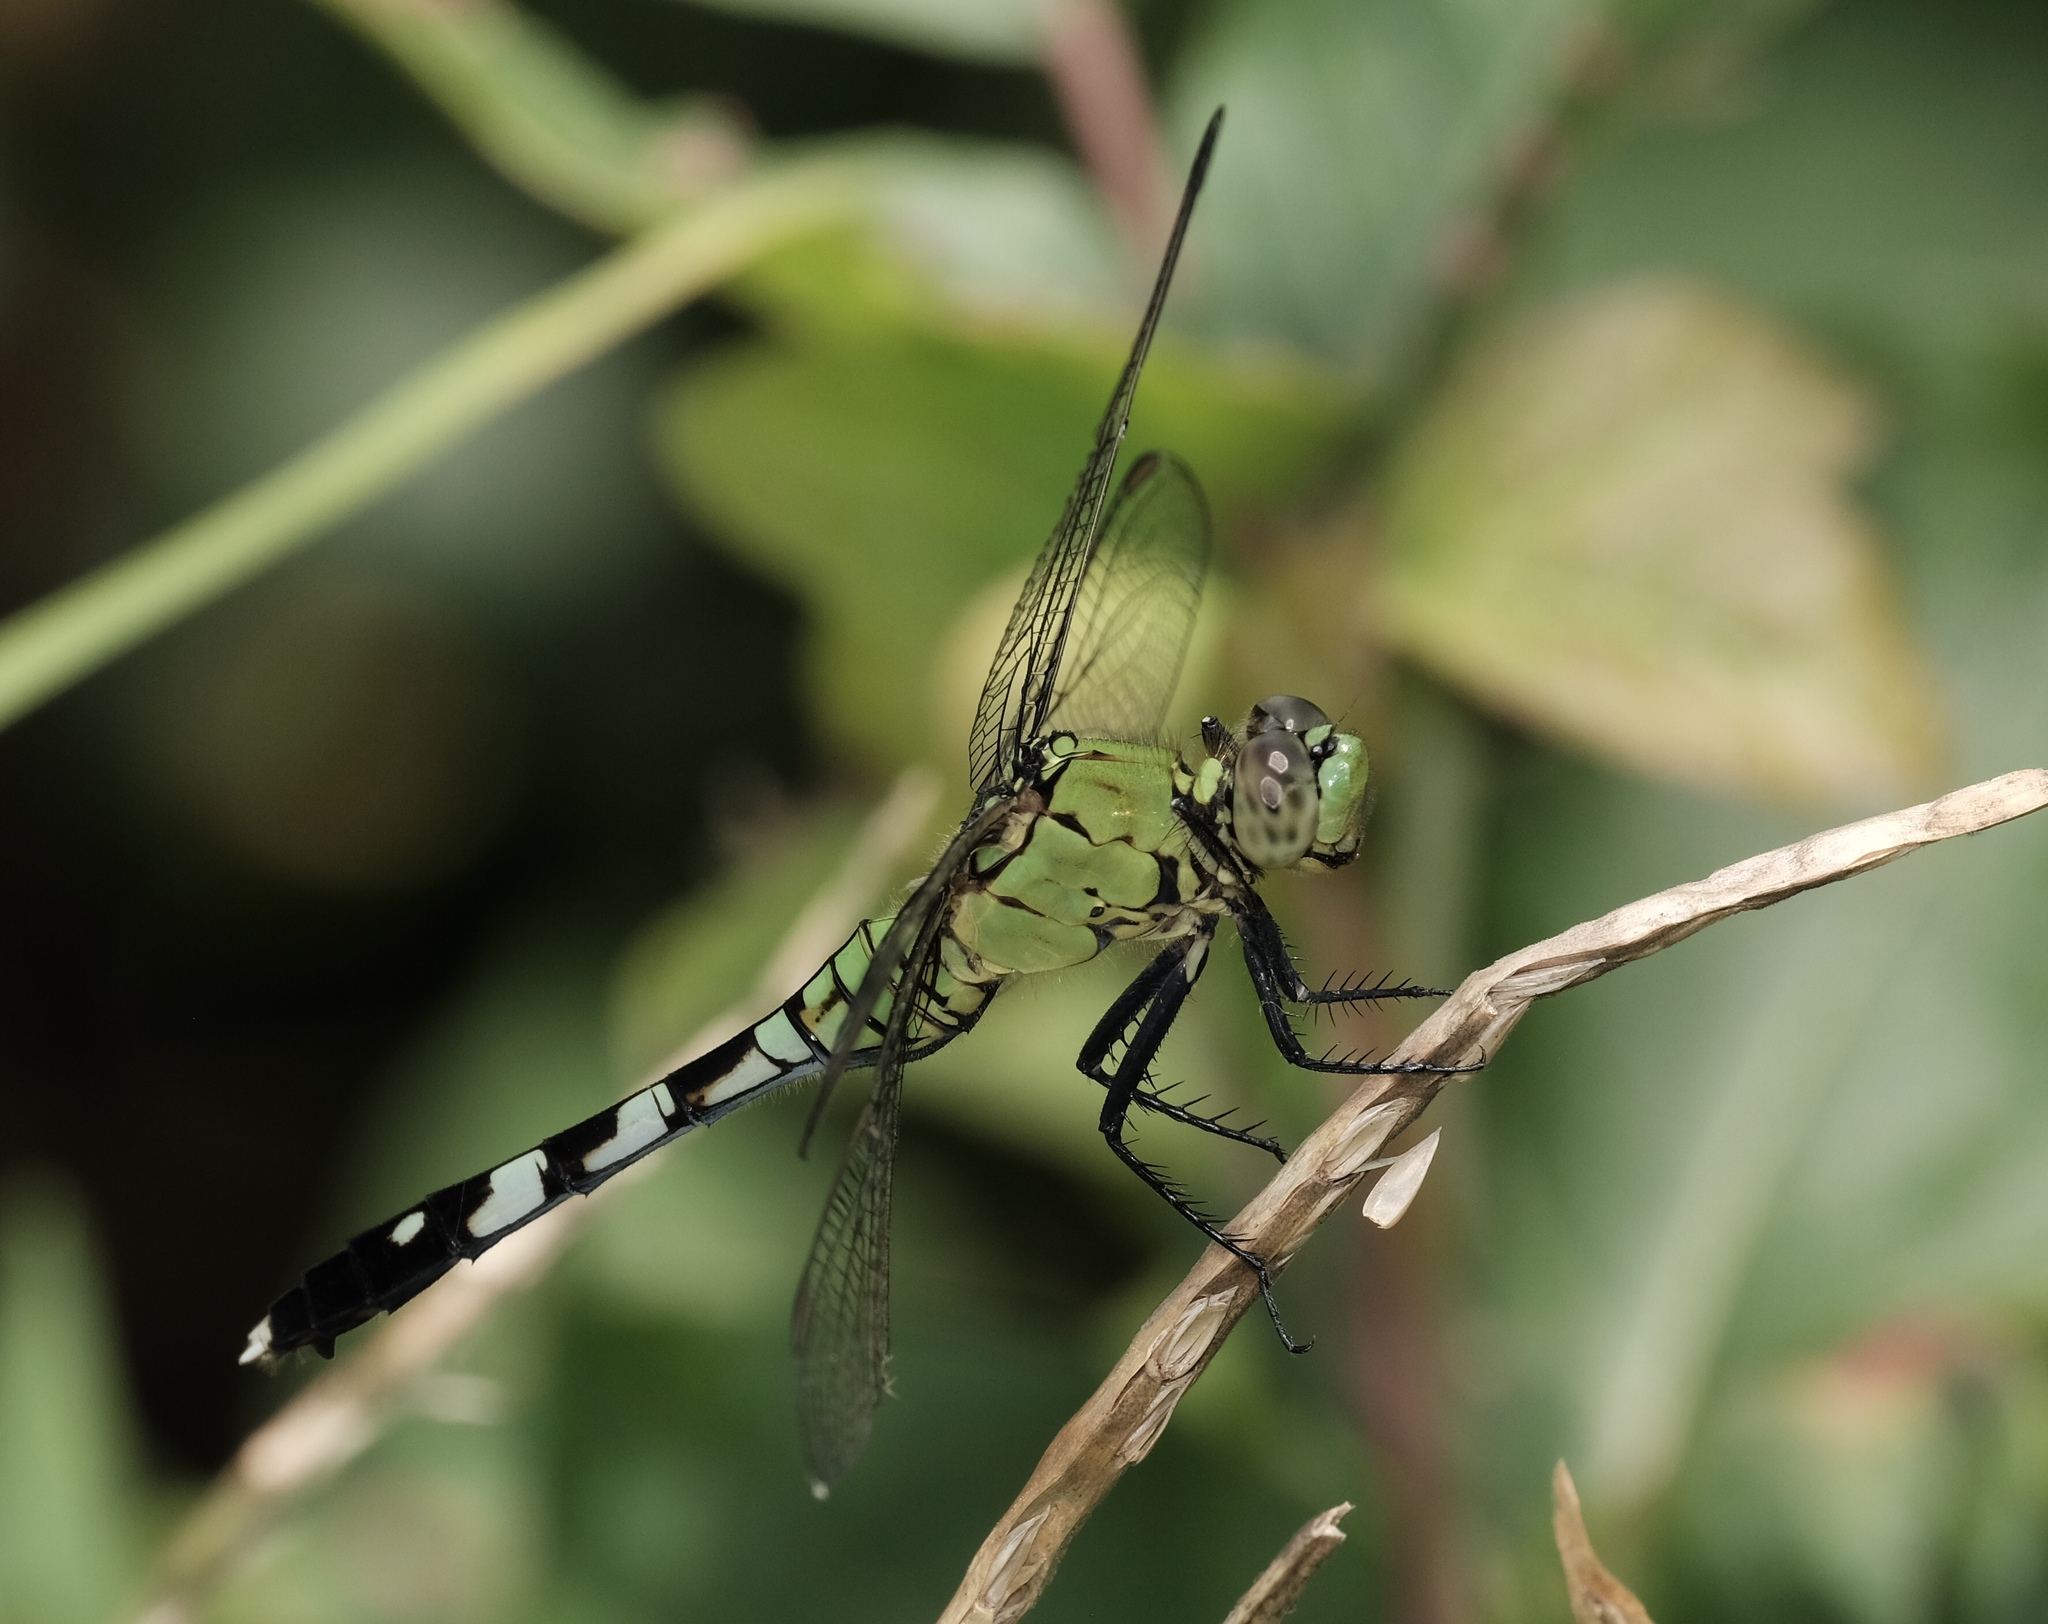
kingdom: Animalia
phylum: Arthropoda
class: Insecta
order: Odonata
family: Libellulidae
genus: Erythemis
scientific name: Erythemis simplicicollis
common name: Eastern pondhawk
